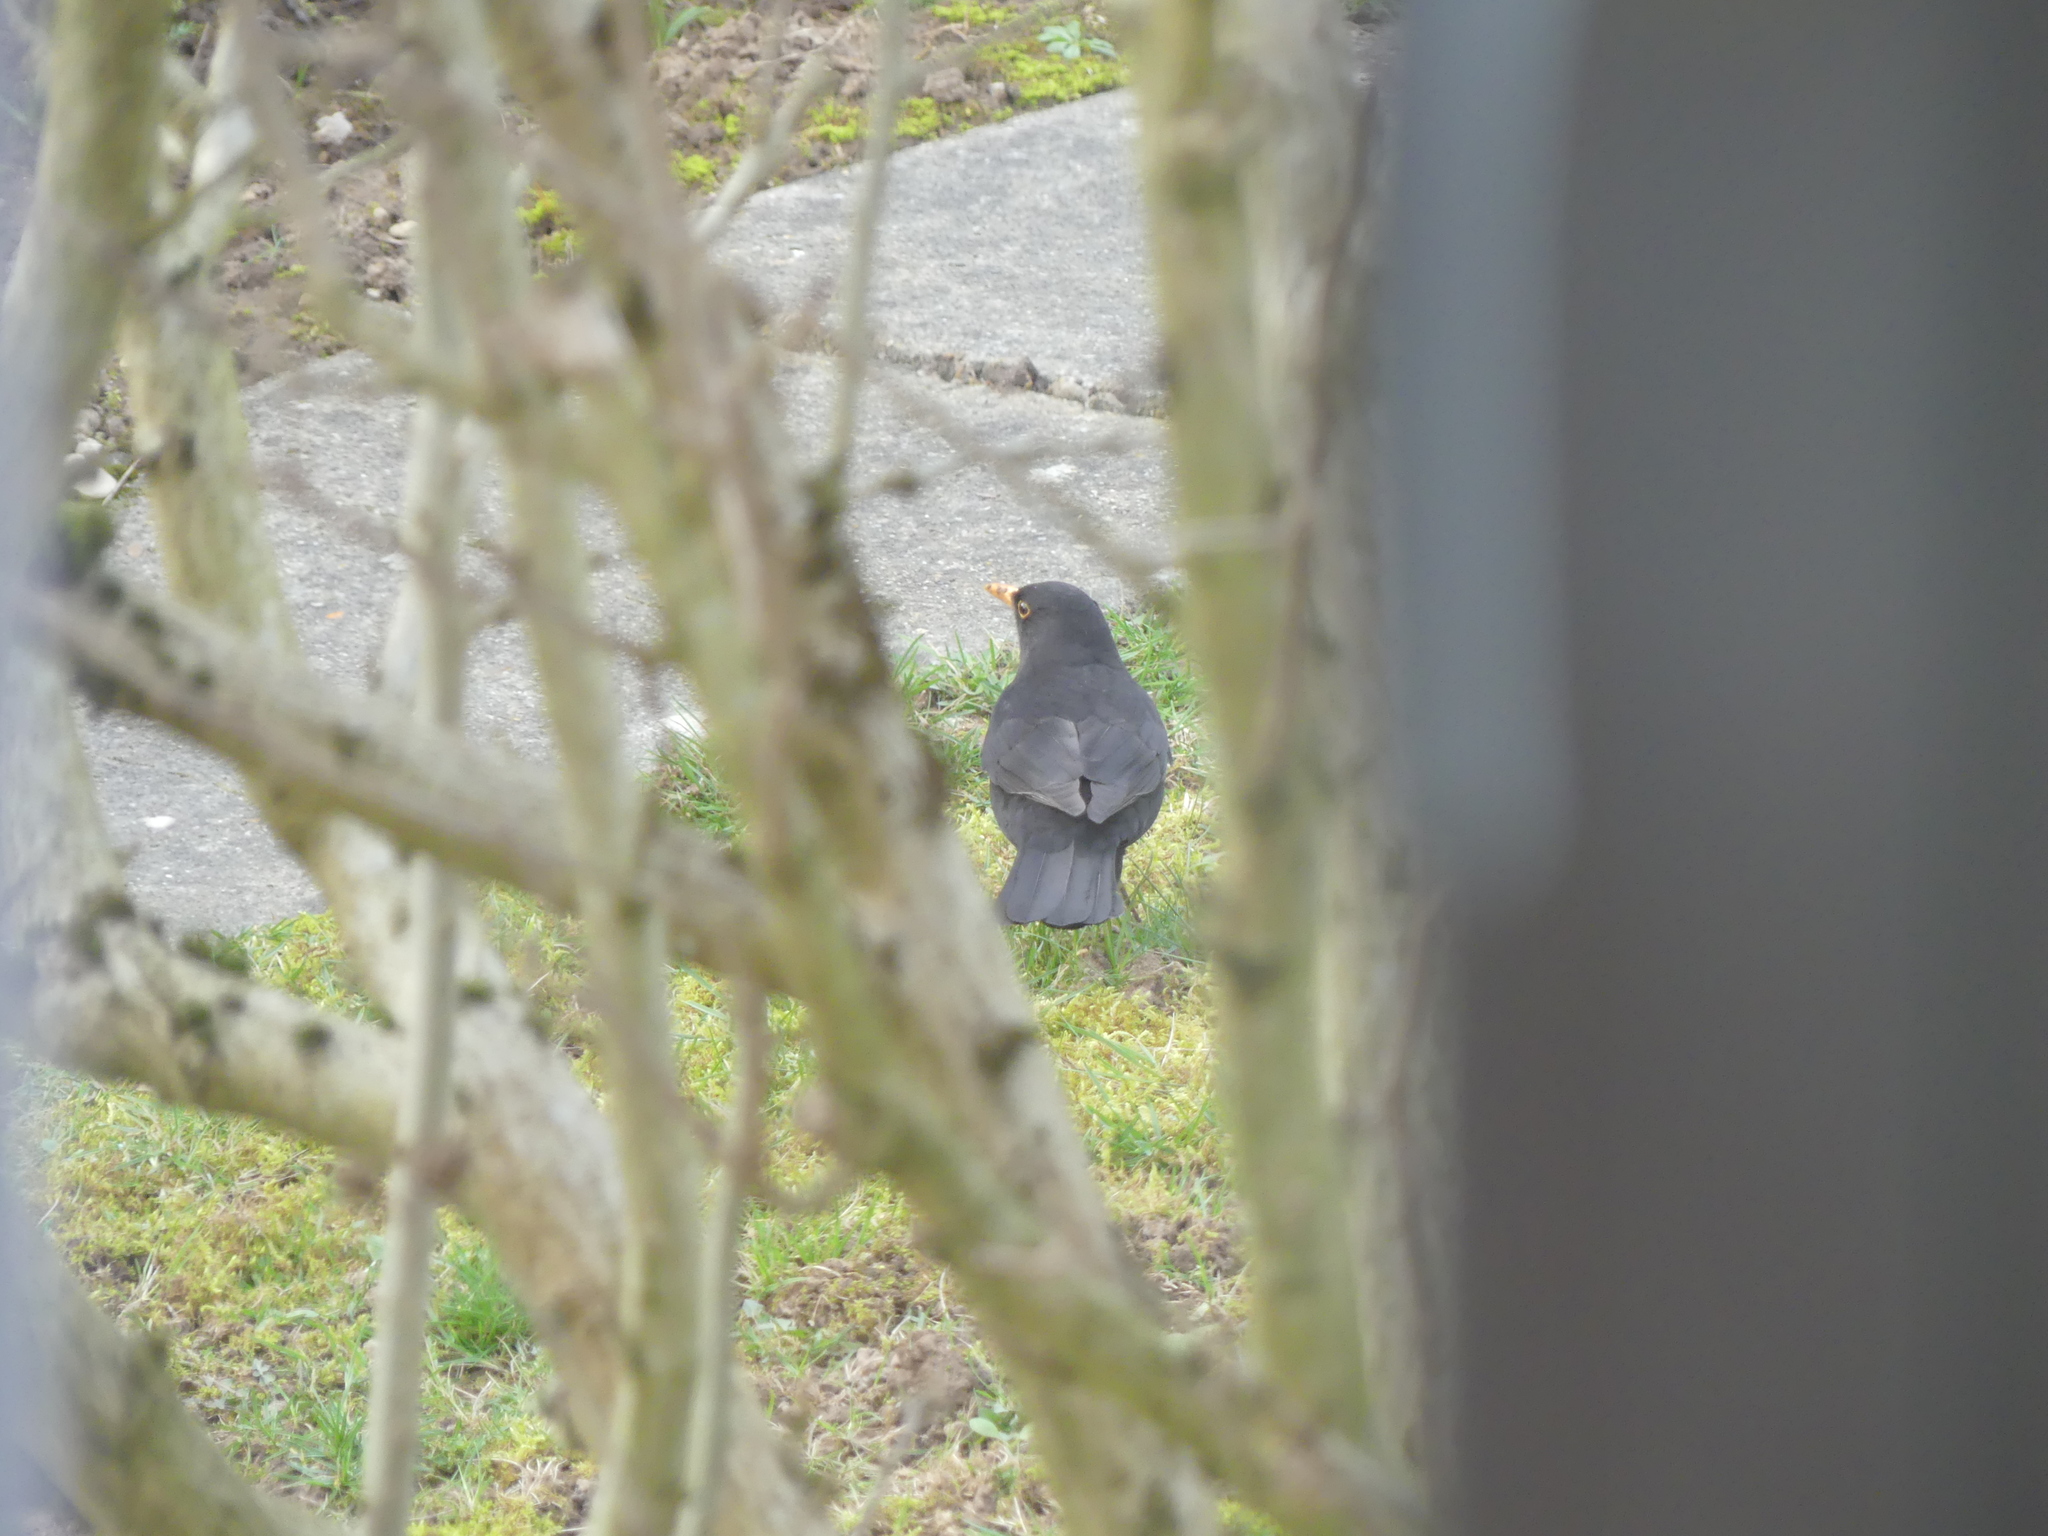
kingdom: Animalia
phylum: Chordata
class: Aves
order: Passeriformes
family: Turdidae
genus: Turdus
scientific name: Turdus merula
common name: Common blackbird
